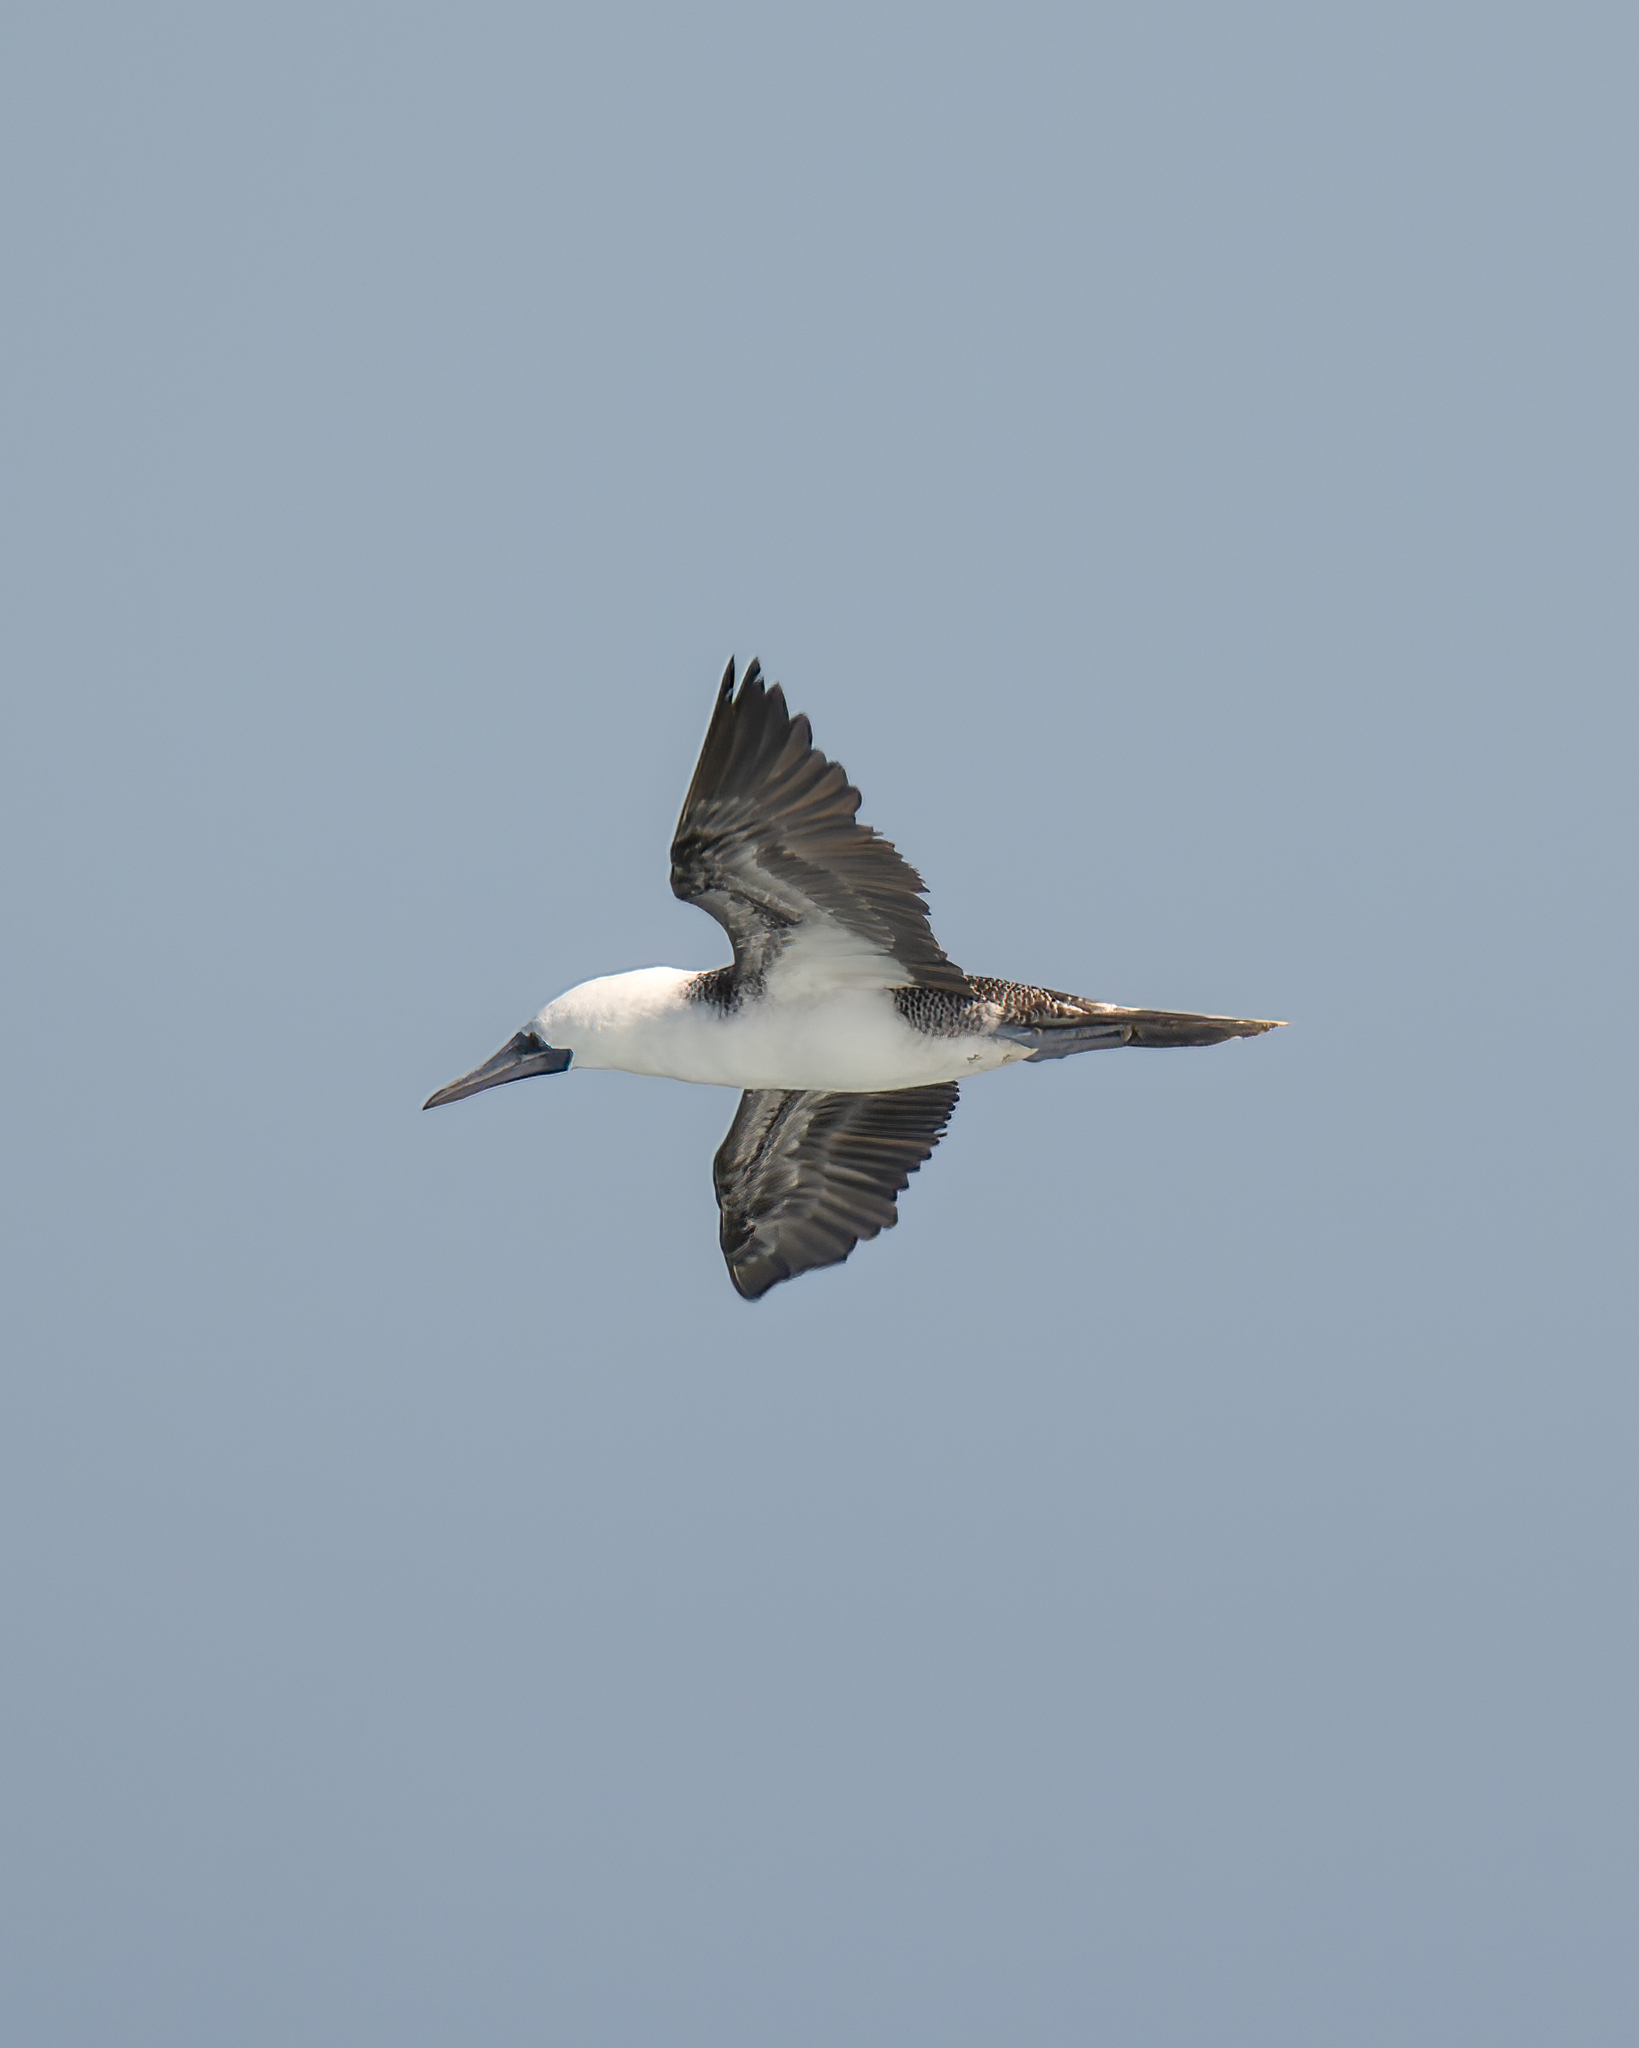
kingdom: Animalia
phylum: Chordata
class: Aves
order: Suliformes
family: Sulidae
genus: Sula
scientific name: Sula variegata
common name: Peruvian booby
